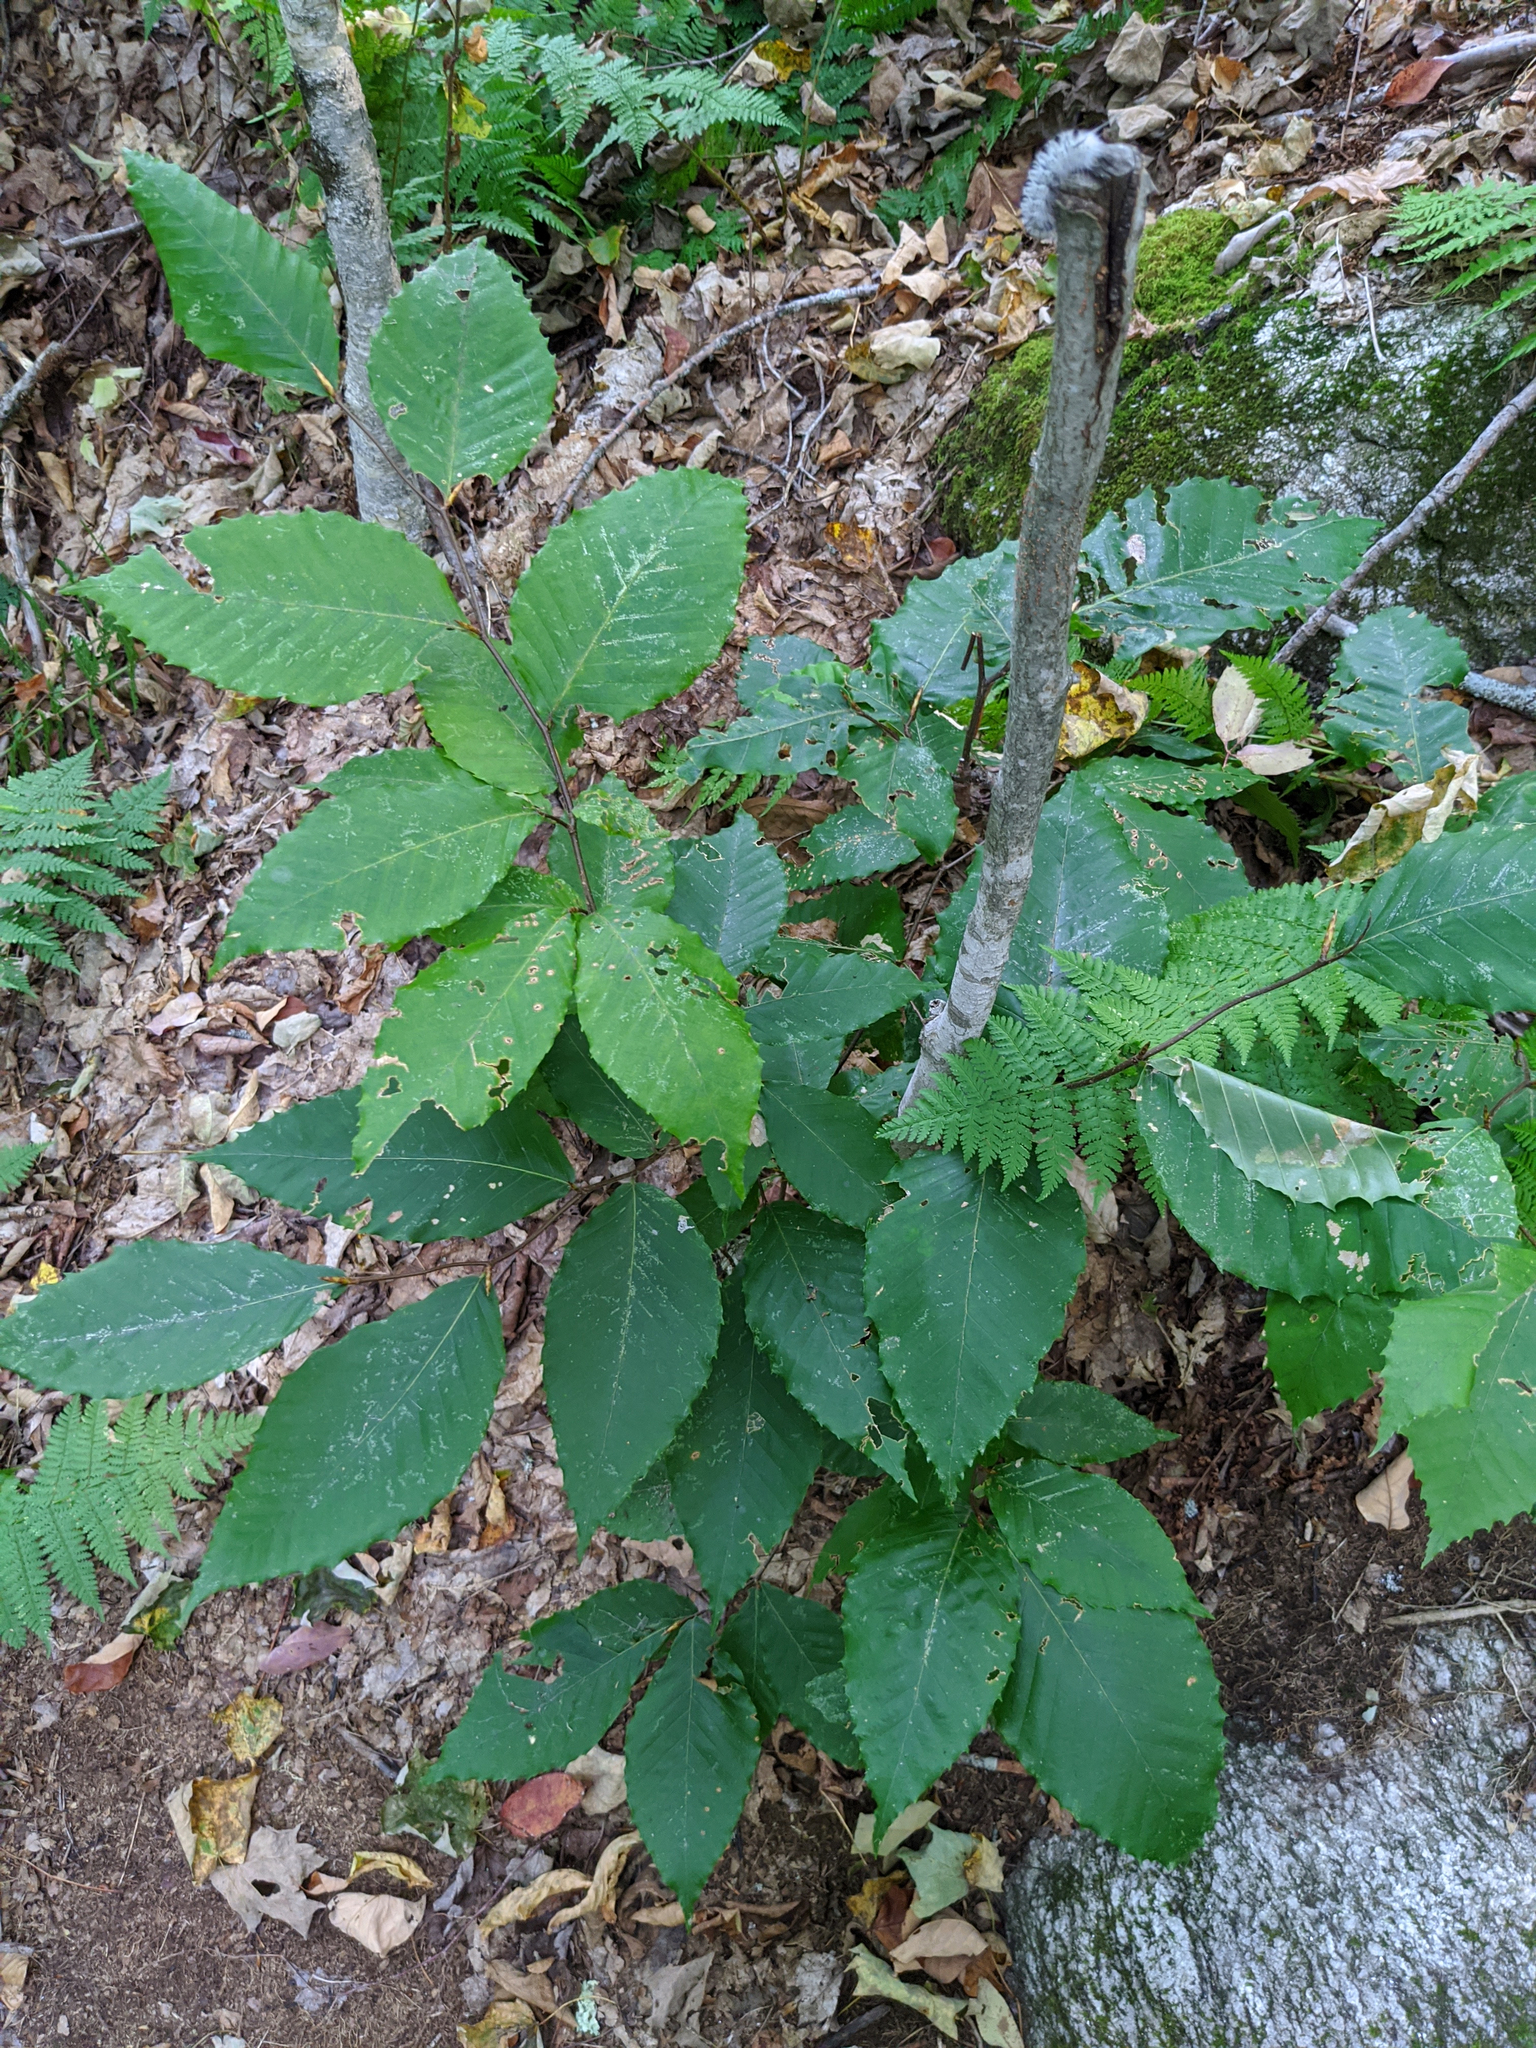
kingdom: Plantae
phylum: Tracheophyta
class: Magnoliopsida
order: Fagales
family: Fagaceae
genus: Fagus
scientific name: Fagus grandifolia
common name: American beech
